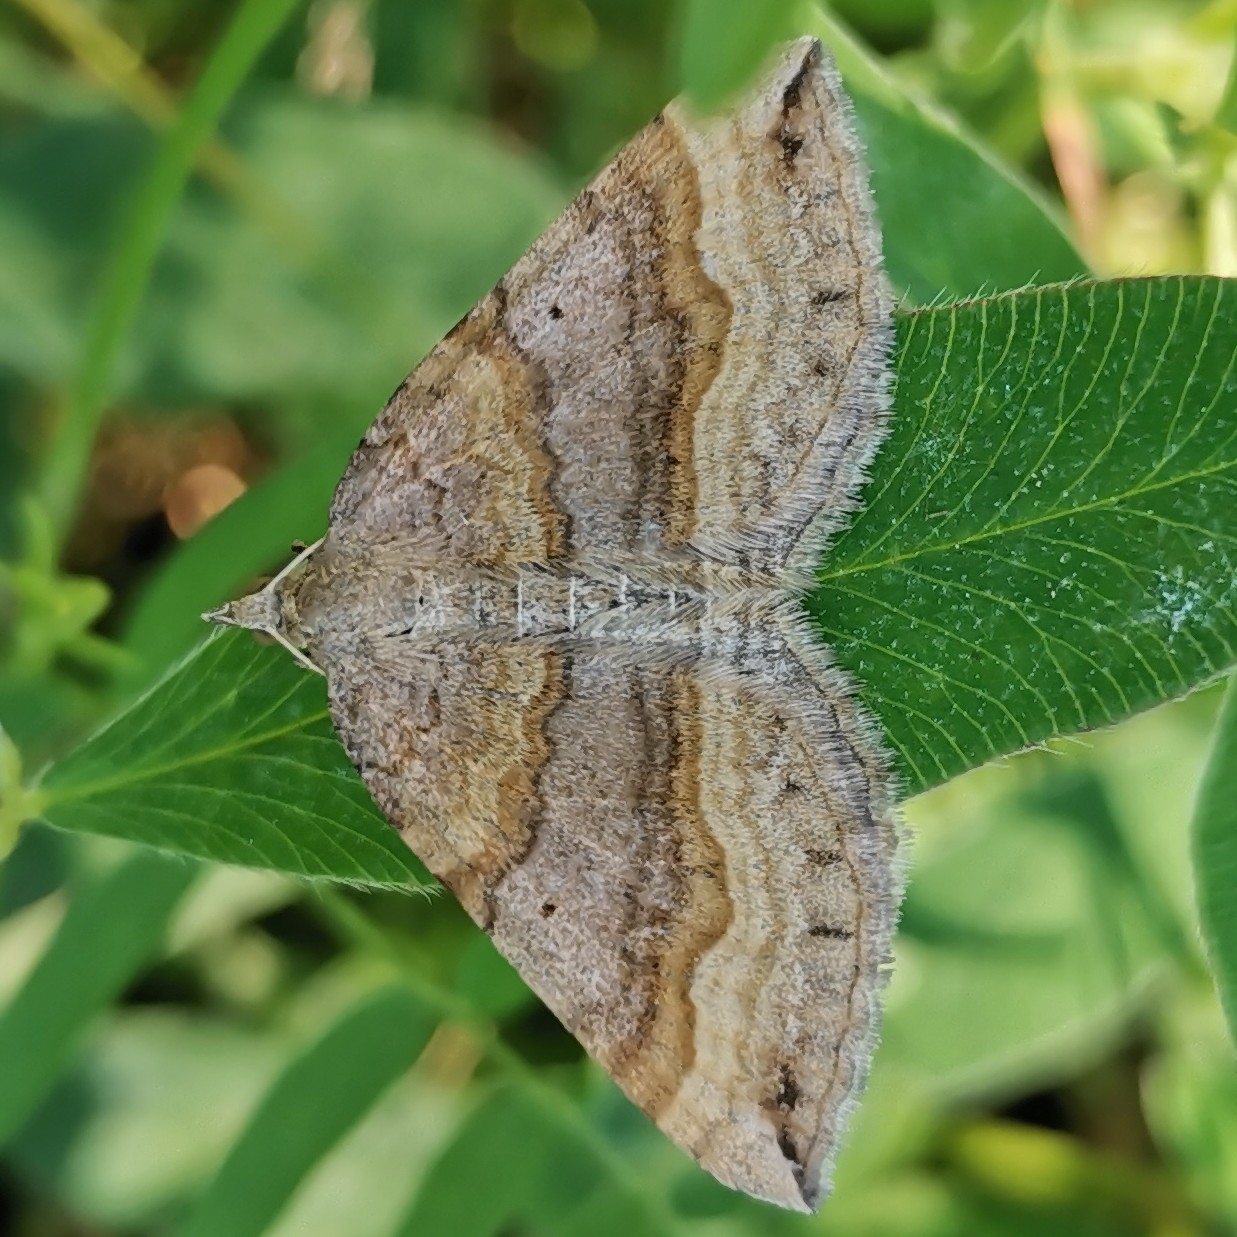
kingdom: Animalia
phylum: Arthropoda
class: Insecta
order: Lepidoptera
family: Geometridae
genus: Scotopteryx
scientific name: Scotopteryx chenopodiata
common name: Shaded broad-bar
